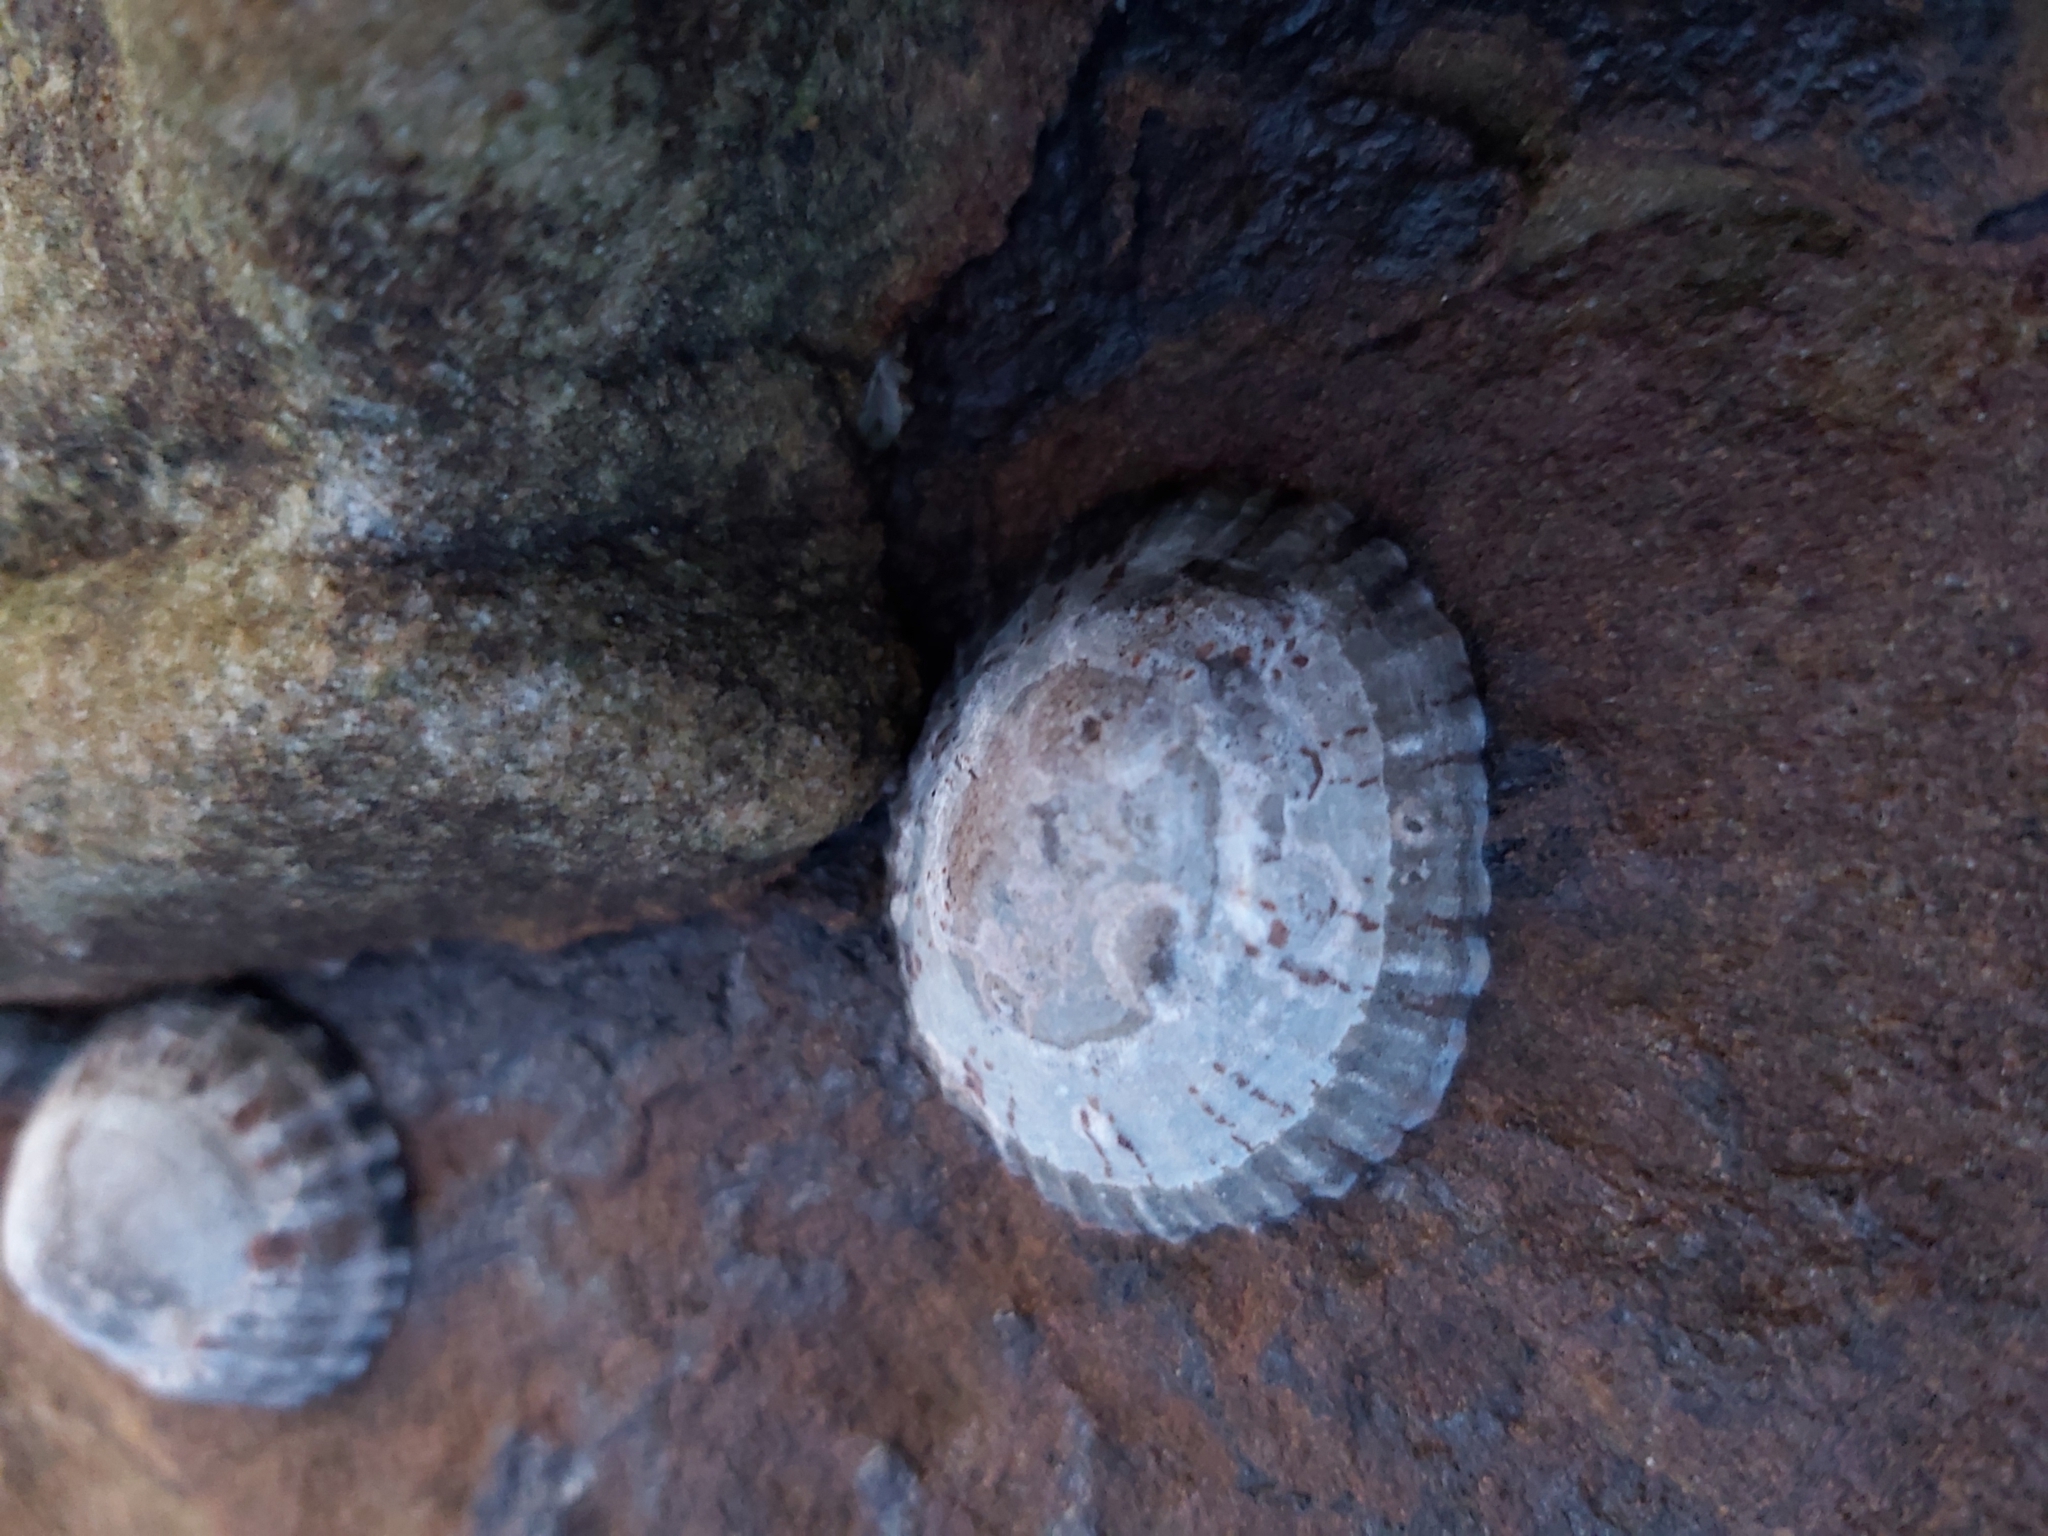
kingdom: Animalia
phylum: Mollusca
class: Gastropoda
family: Nacellidae
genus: Cellana
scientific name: Cellana tramoserica
